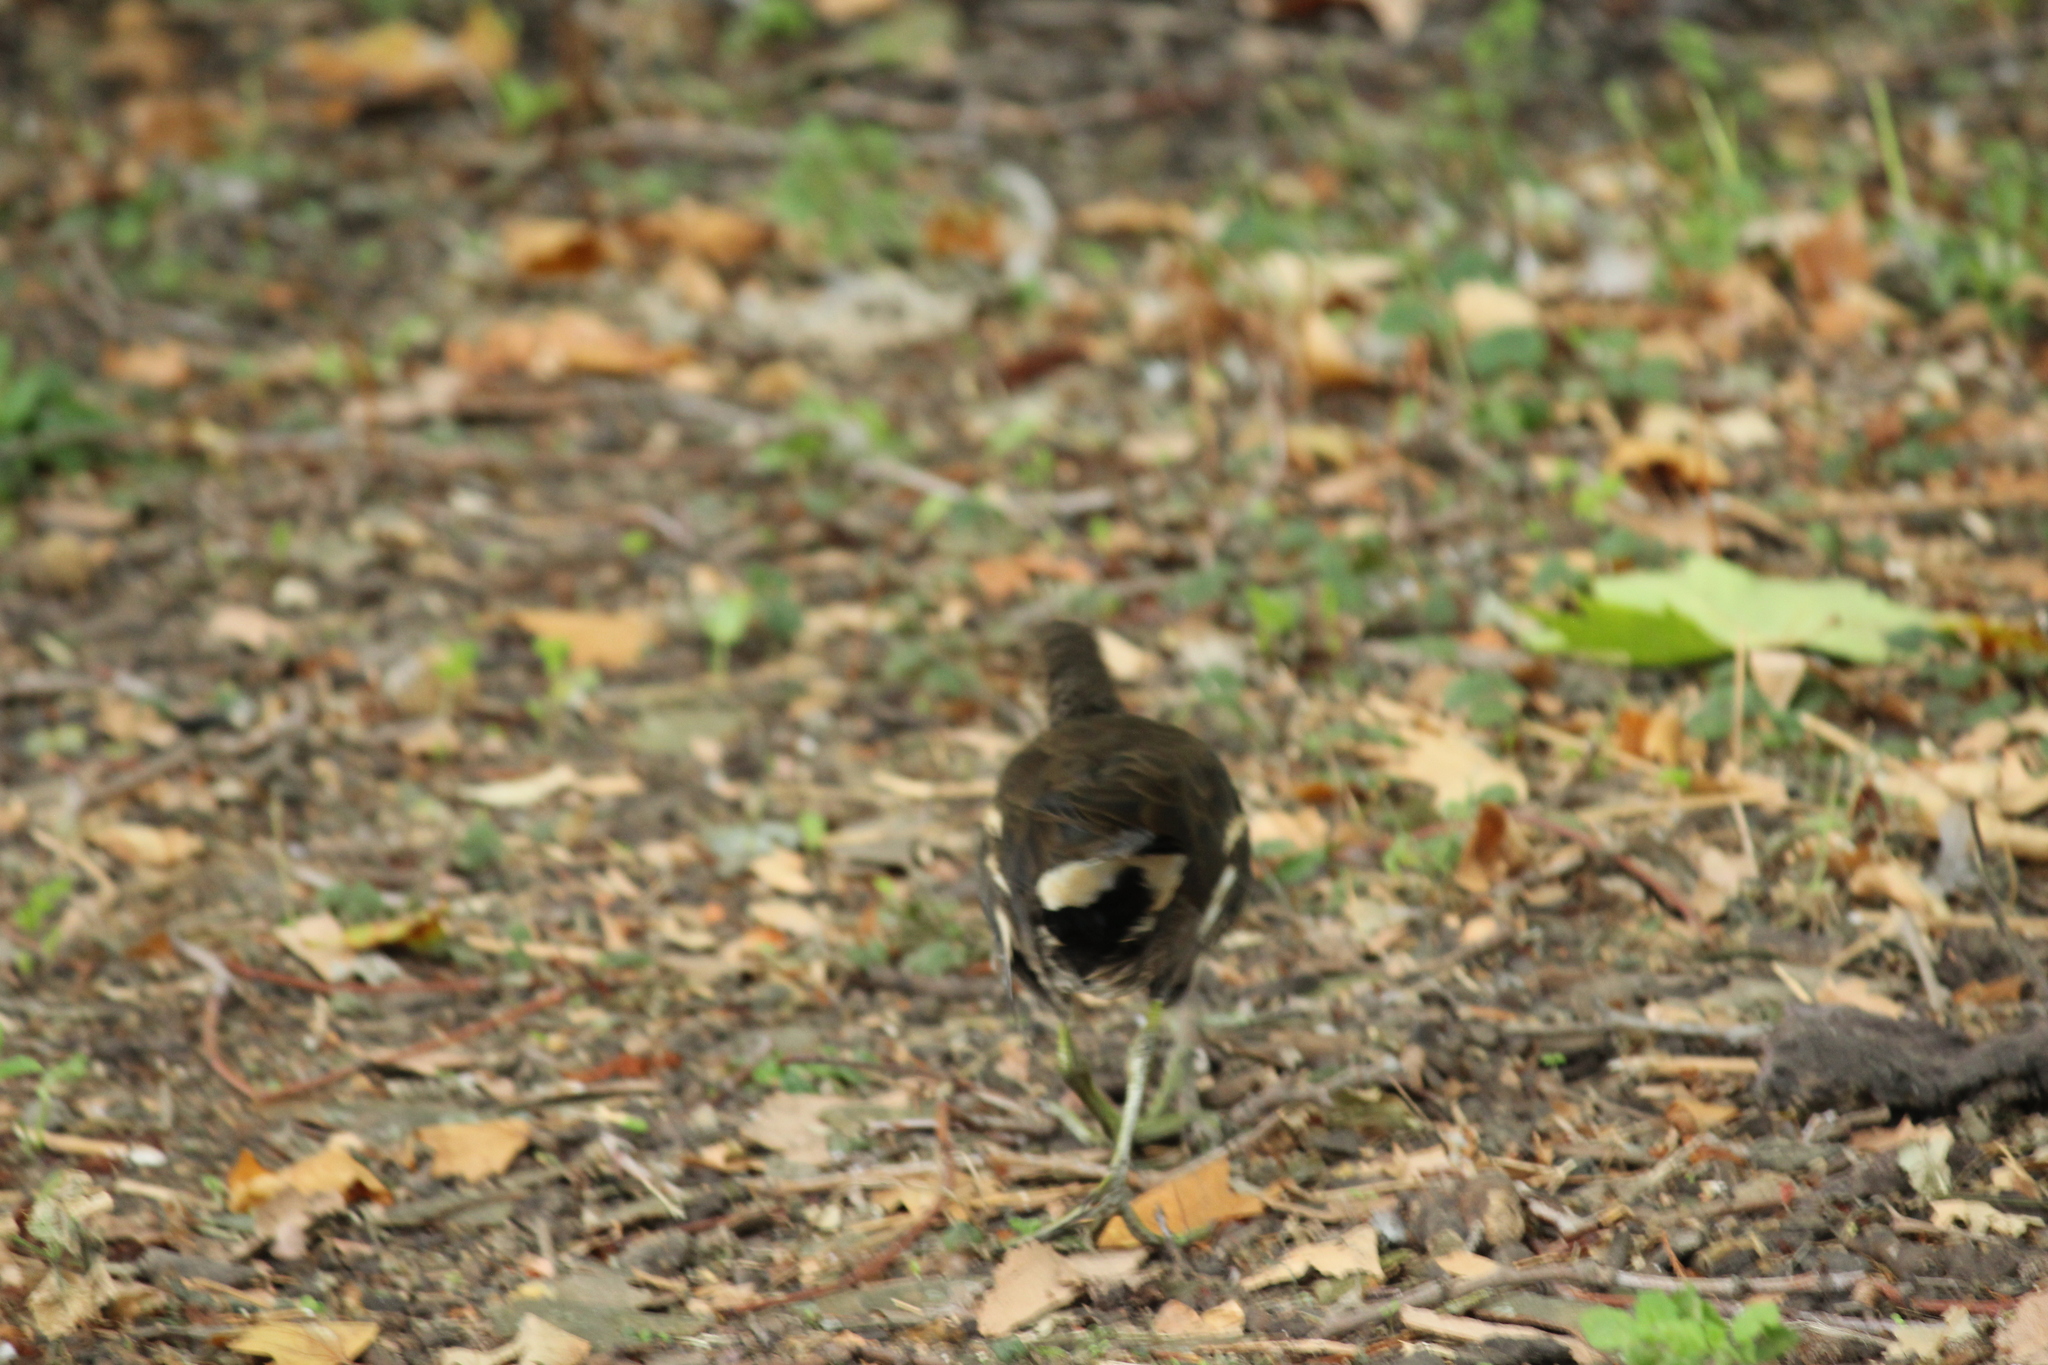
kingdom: Animalia
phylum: Chordata
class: Aves
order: Gruiformes
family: Rallidae
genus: Gallinula
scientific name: Gallinula chloropus
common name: Common moorhen
